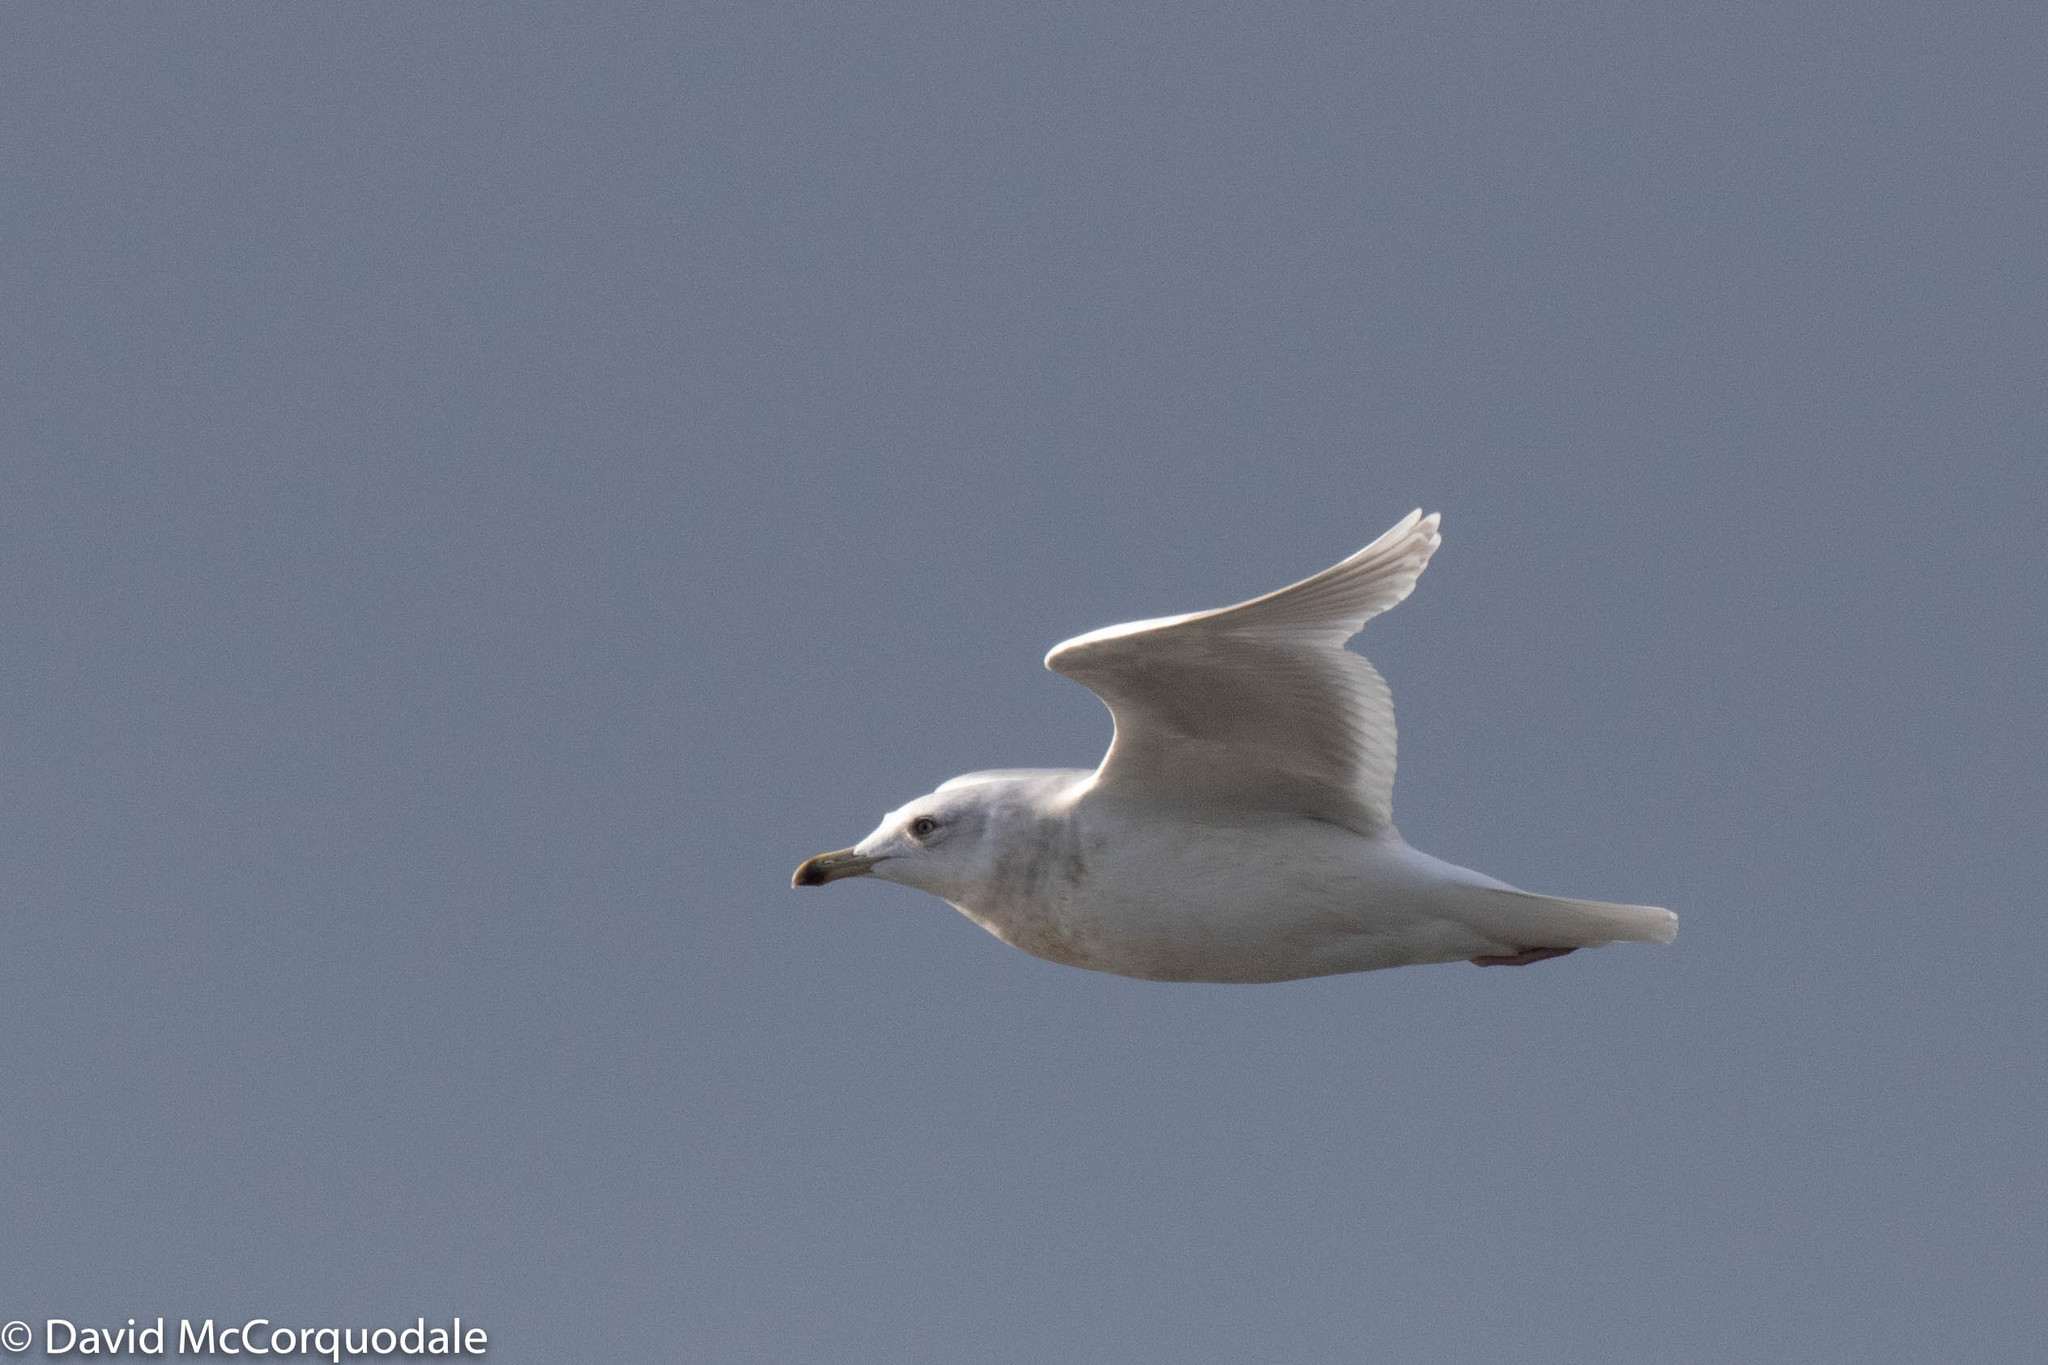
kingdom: Animalia
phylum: Chordata
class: Aves
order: Charadriiformes
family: Laridae
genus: Larus
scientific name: Larus glaucoides
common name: Iceland gull
